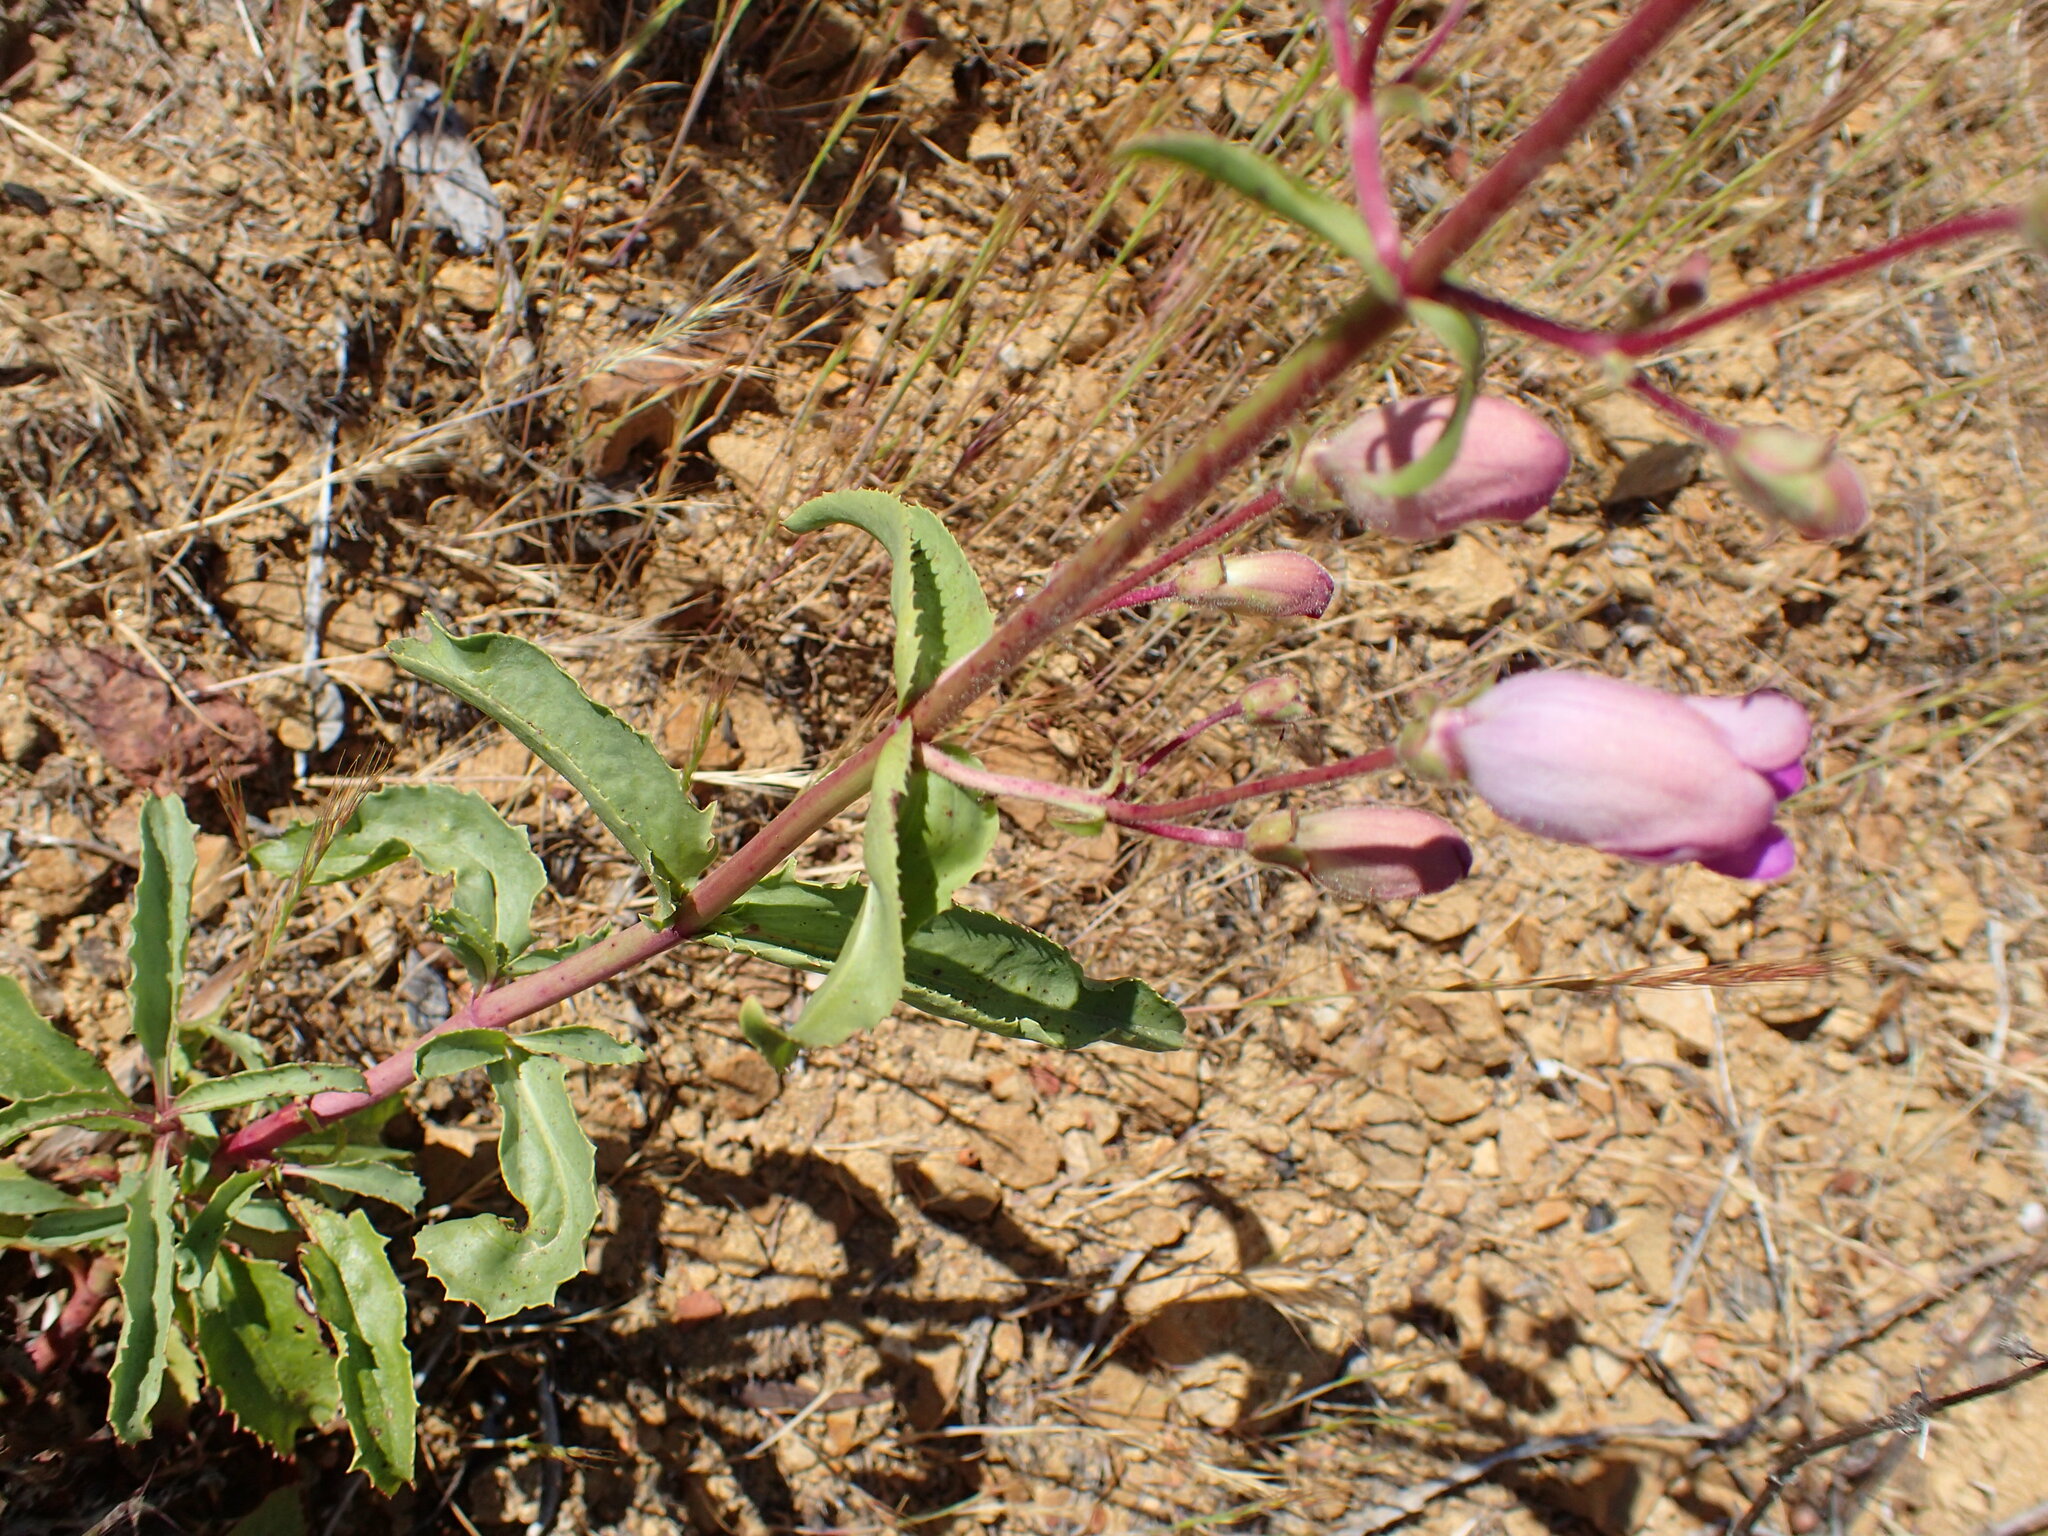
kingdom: Plantae
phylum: Tracheophyta
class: Magnoliopsida
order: Lamiales
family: Plantaginaceae
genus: Penstemon
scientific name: Penstemon grinnellii
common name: Grinnell's beardtongue
